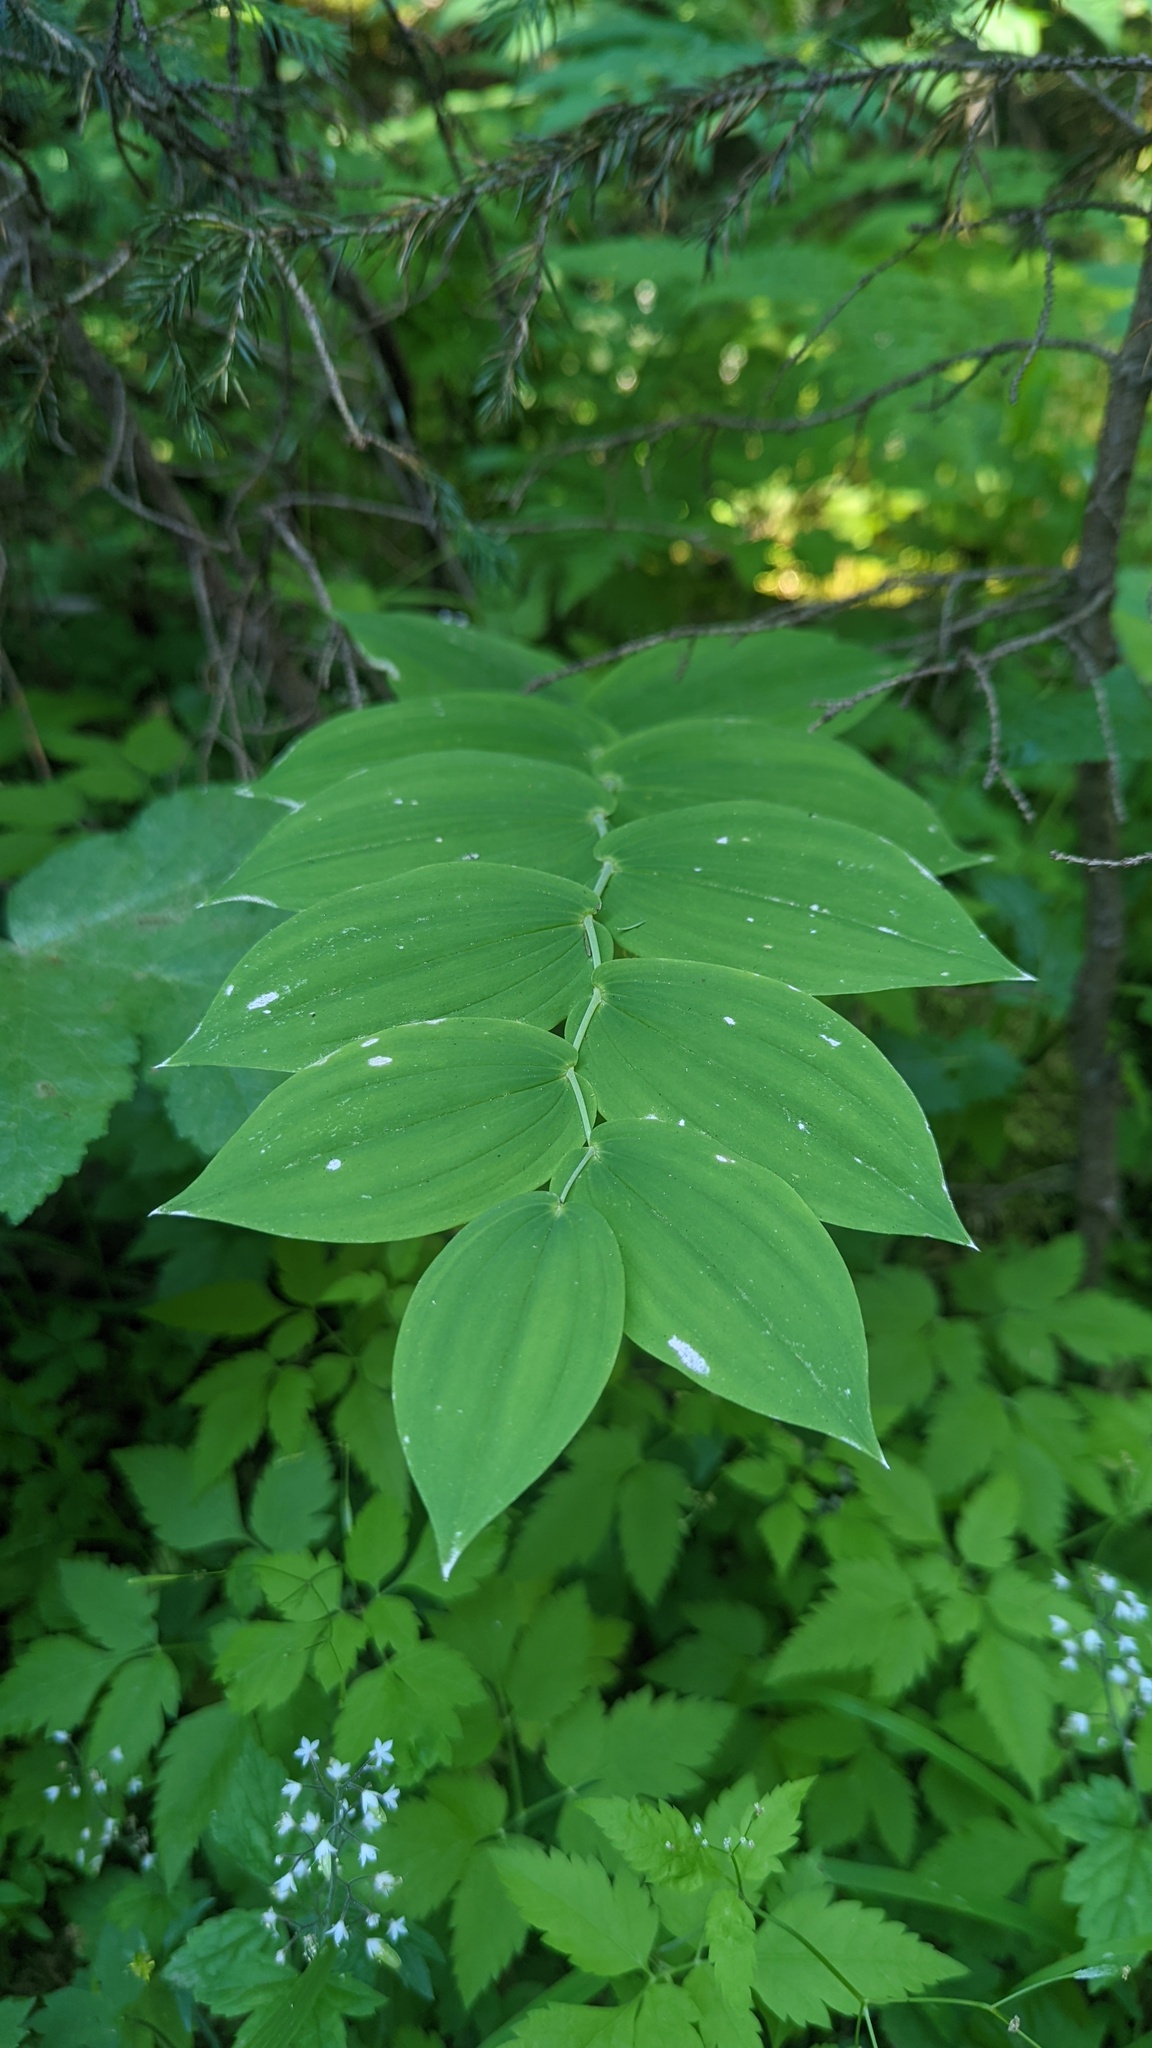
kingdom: Plantae
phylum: Tracheophyta
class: Liliopsida
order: Liliales
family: Liliaceae
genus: Streptopus
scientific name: Streptopus amplexifolius
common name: Clasp twisted stalk
